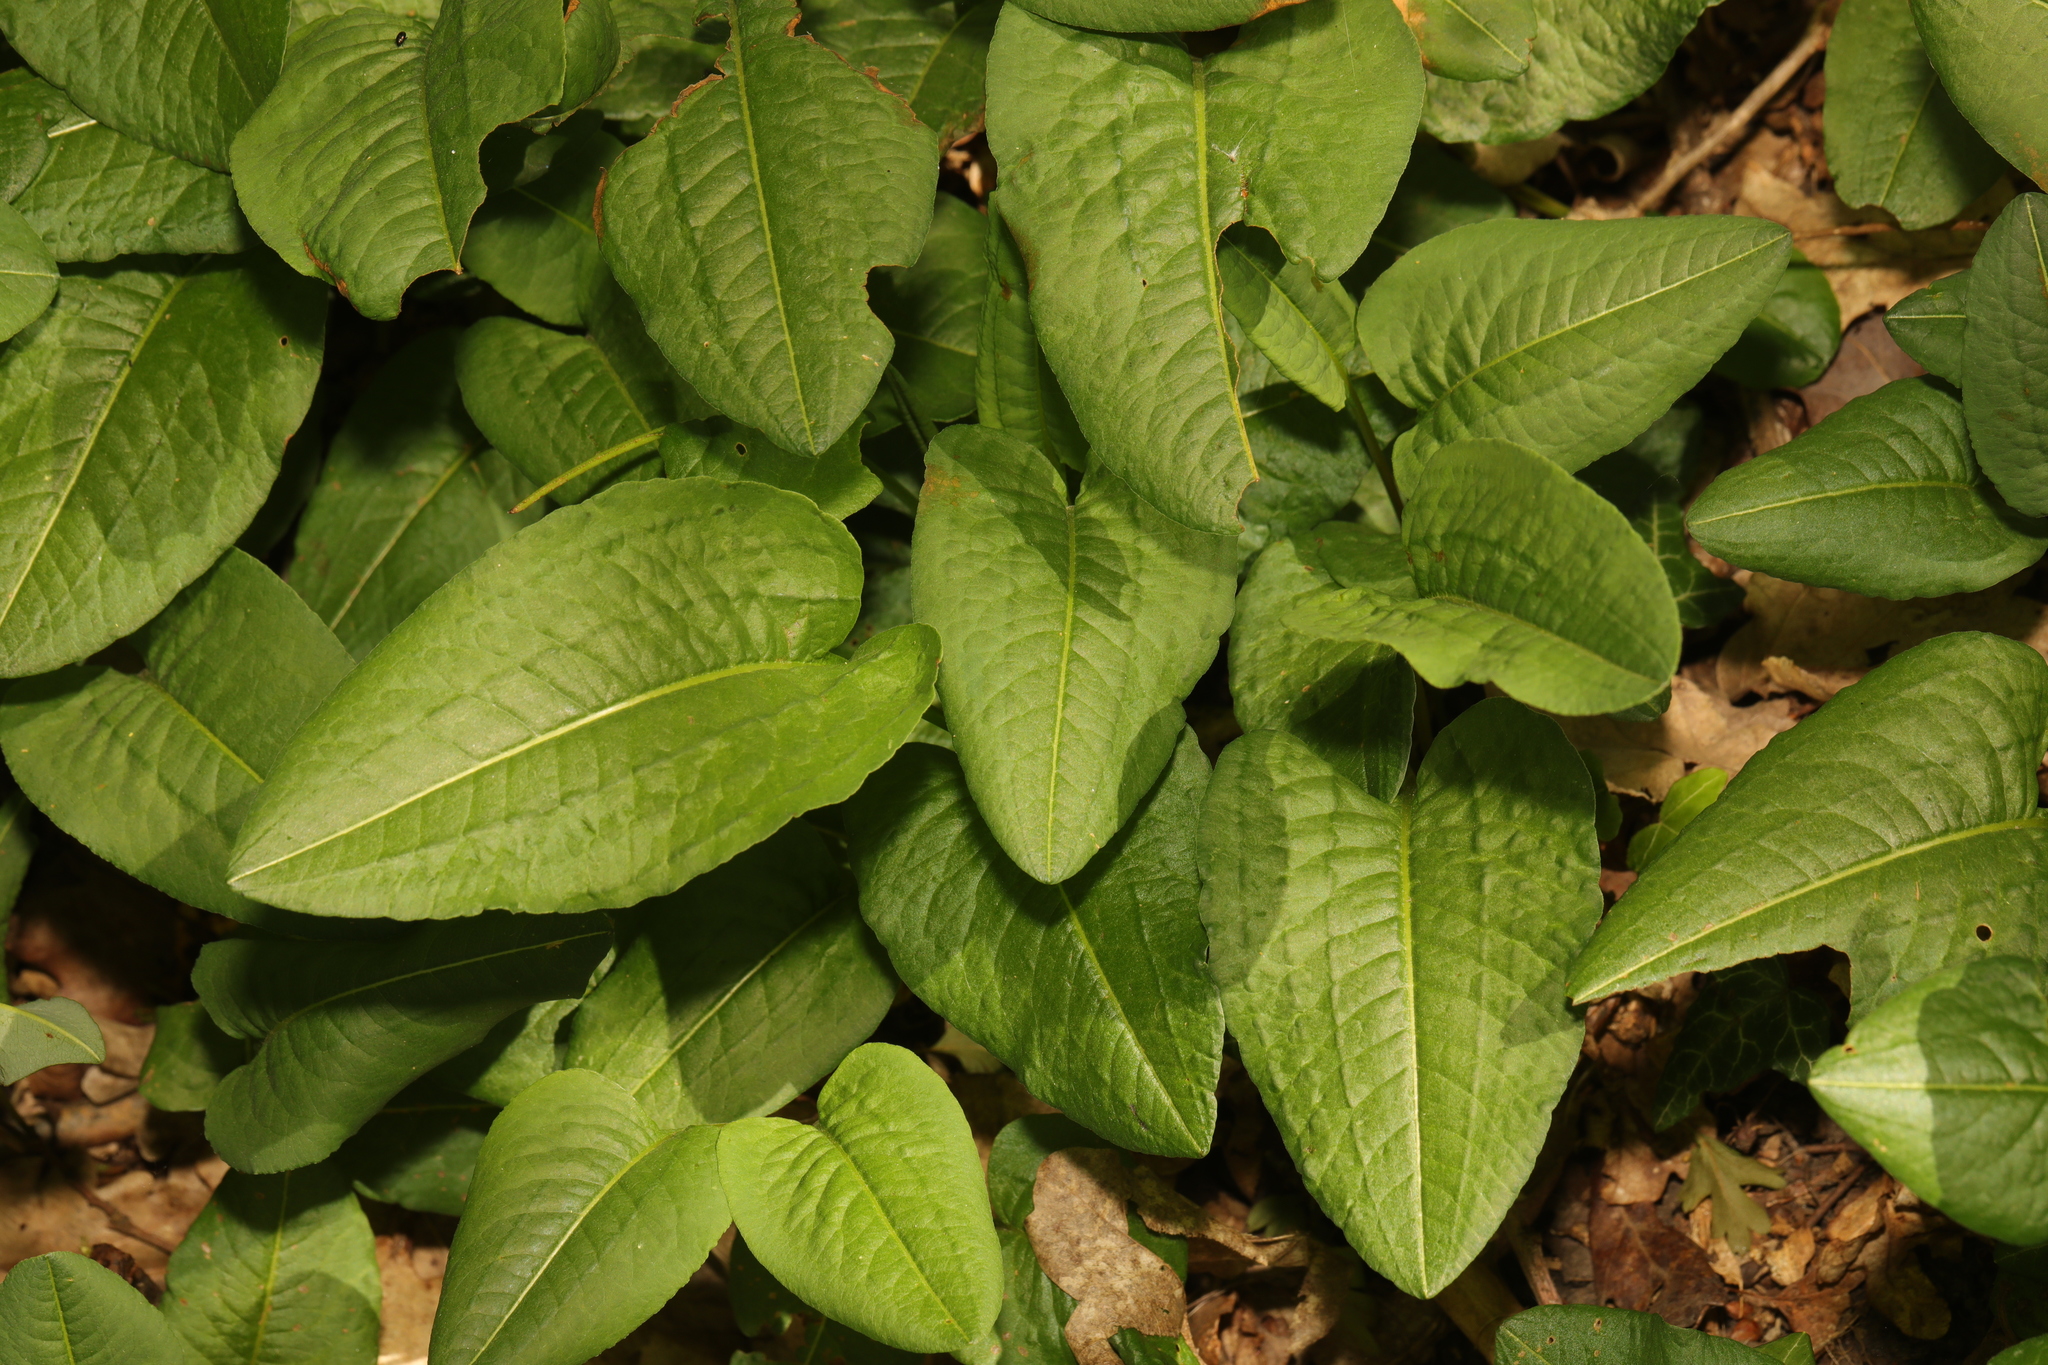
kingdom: Plantae
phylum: Tracheophyta
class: Magnoliopsida
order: Caryophyllales
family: Polygonaceae
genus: Bistorta
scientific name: Bistorta officinalis
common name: Common bistort
